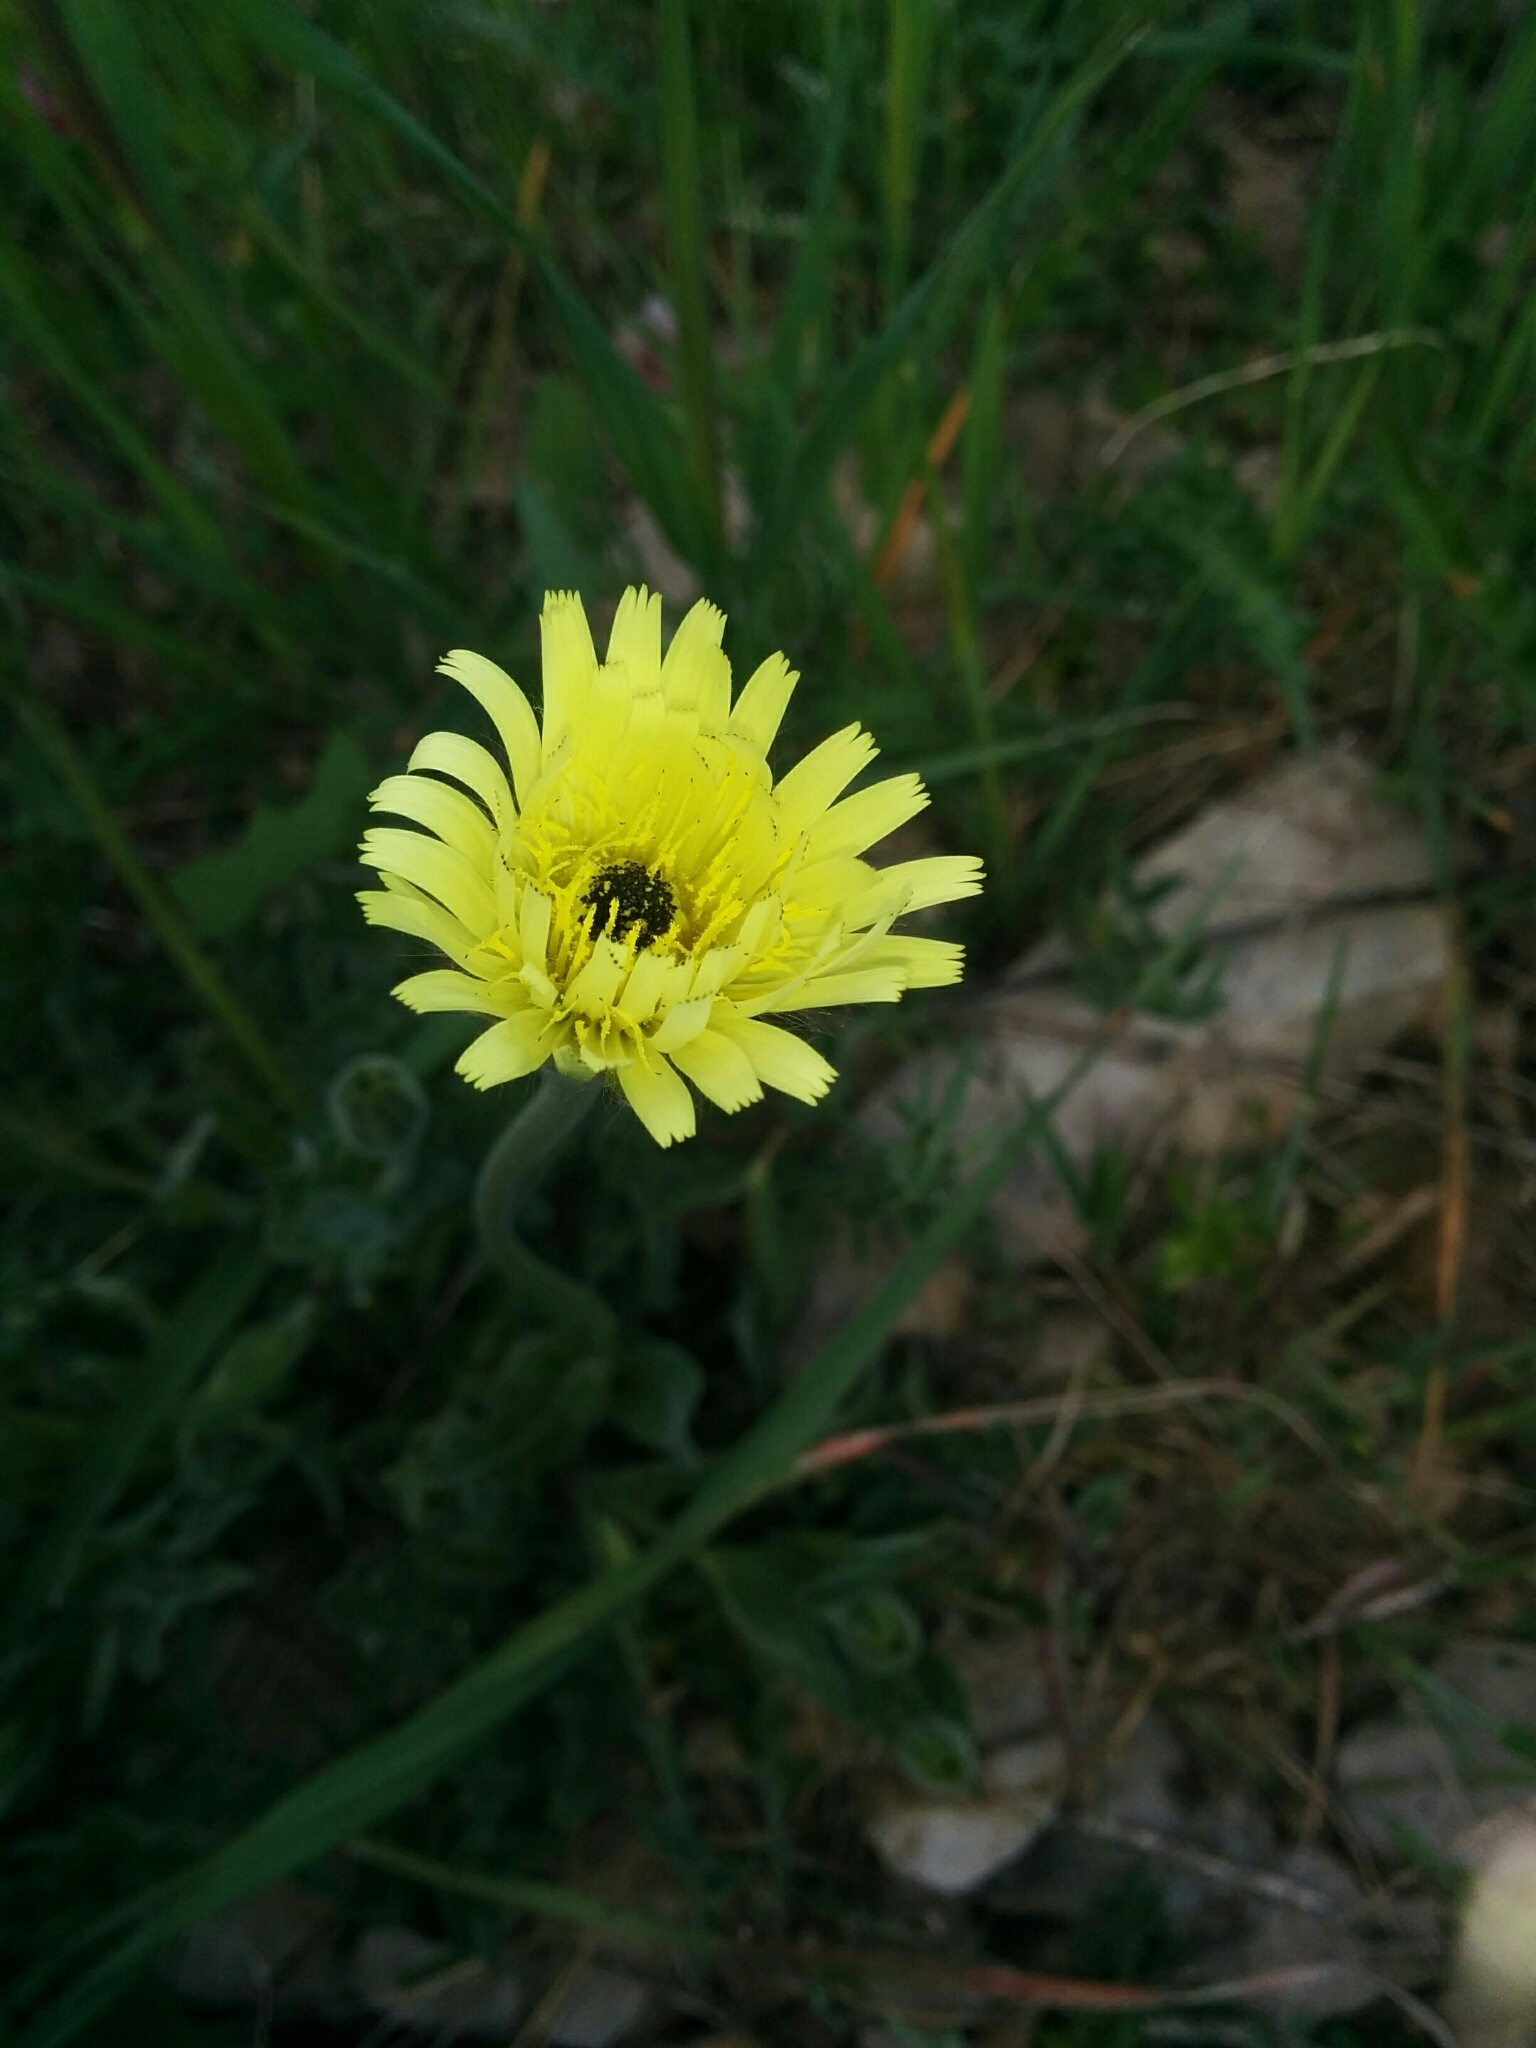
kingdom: Plantae
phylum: Tracheophyta
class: Magnoliopsida
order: Asterales
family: Asteraceae
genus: Urospermum
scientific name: Urospermum dalechampii
